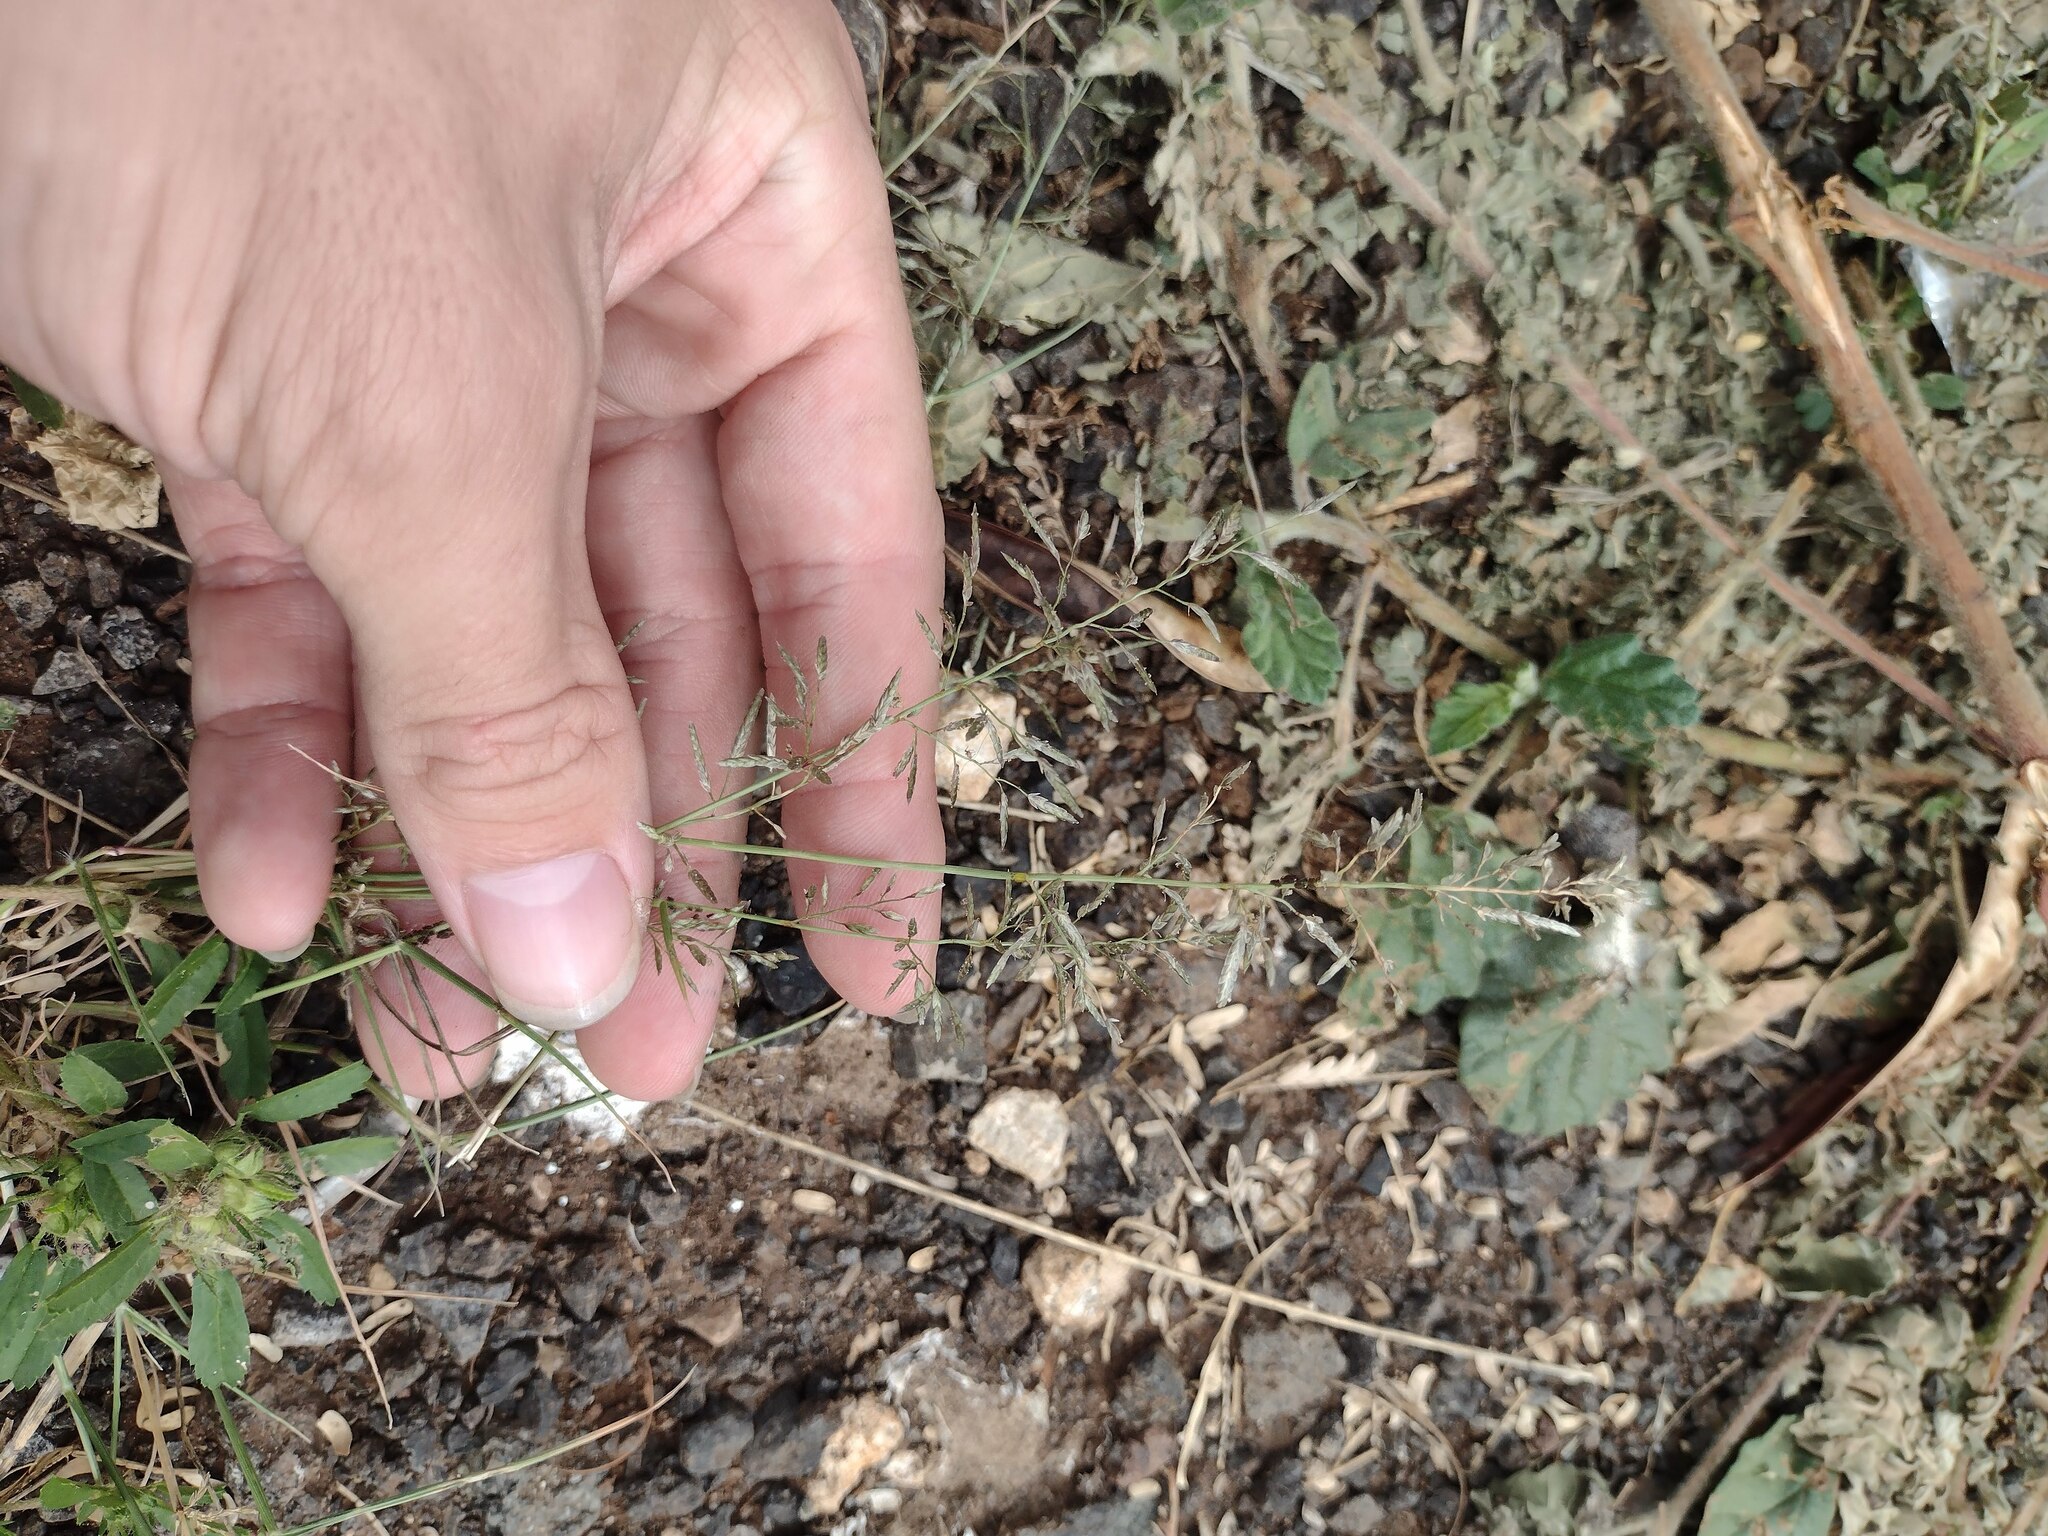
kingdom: Plantae
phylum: Tracheophyta
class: Liliopsida
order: Poales
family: Poaceae
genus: Eragrostis
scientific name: Eragrostis barrelieri
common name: Mediterranean lovegrass
